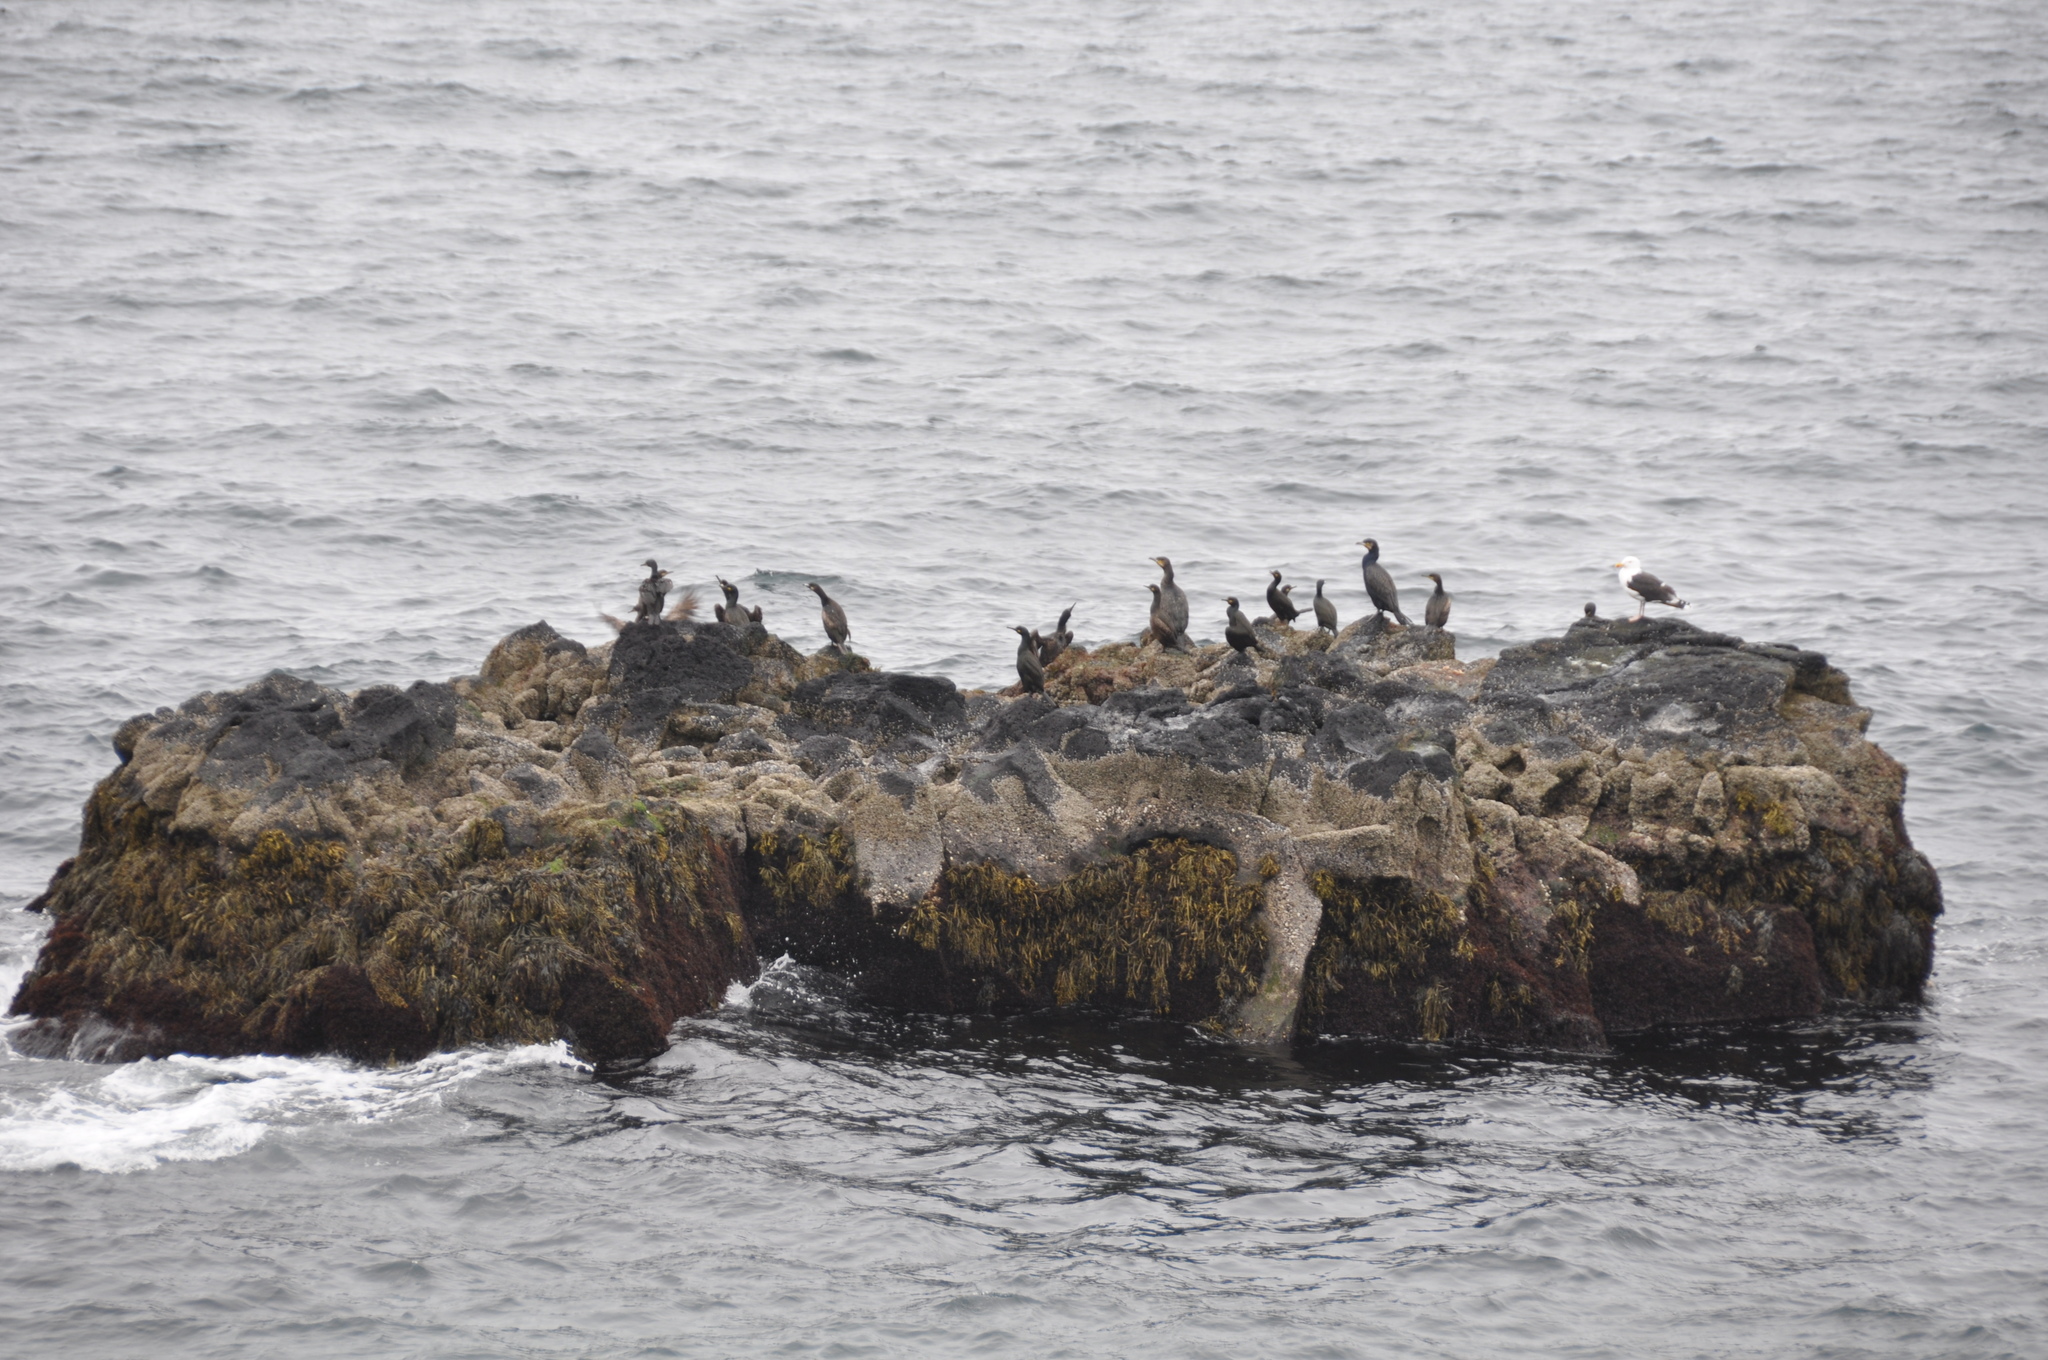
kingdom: Animalia
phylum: Chordata
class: Aves
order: Suliformes
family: Phalacrocoracidae
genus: Phalacrocorax
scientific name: Phalacrocorax carbo
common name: Great cormorant
